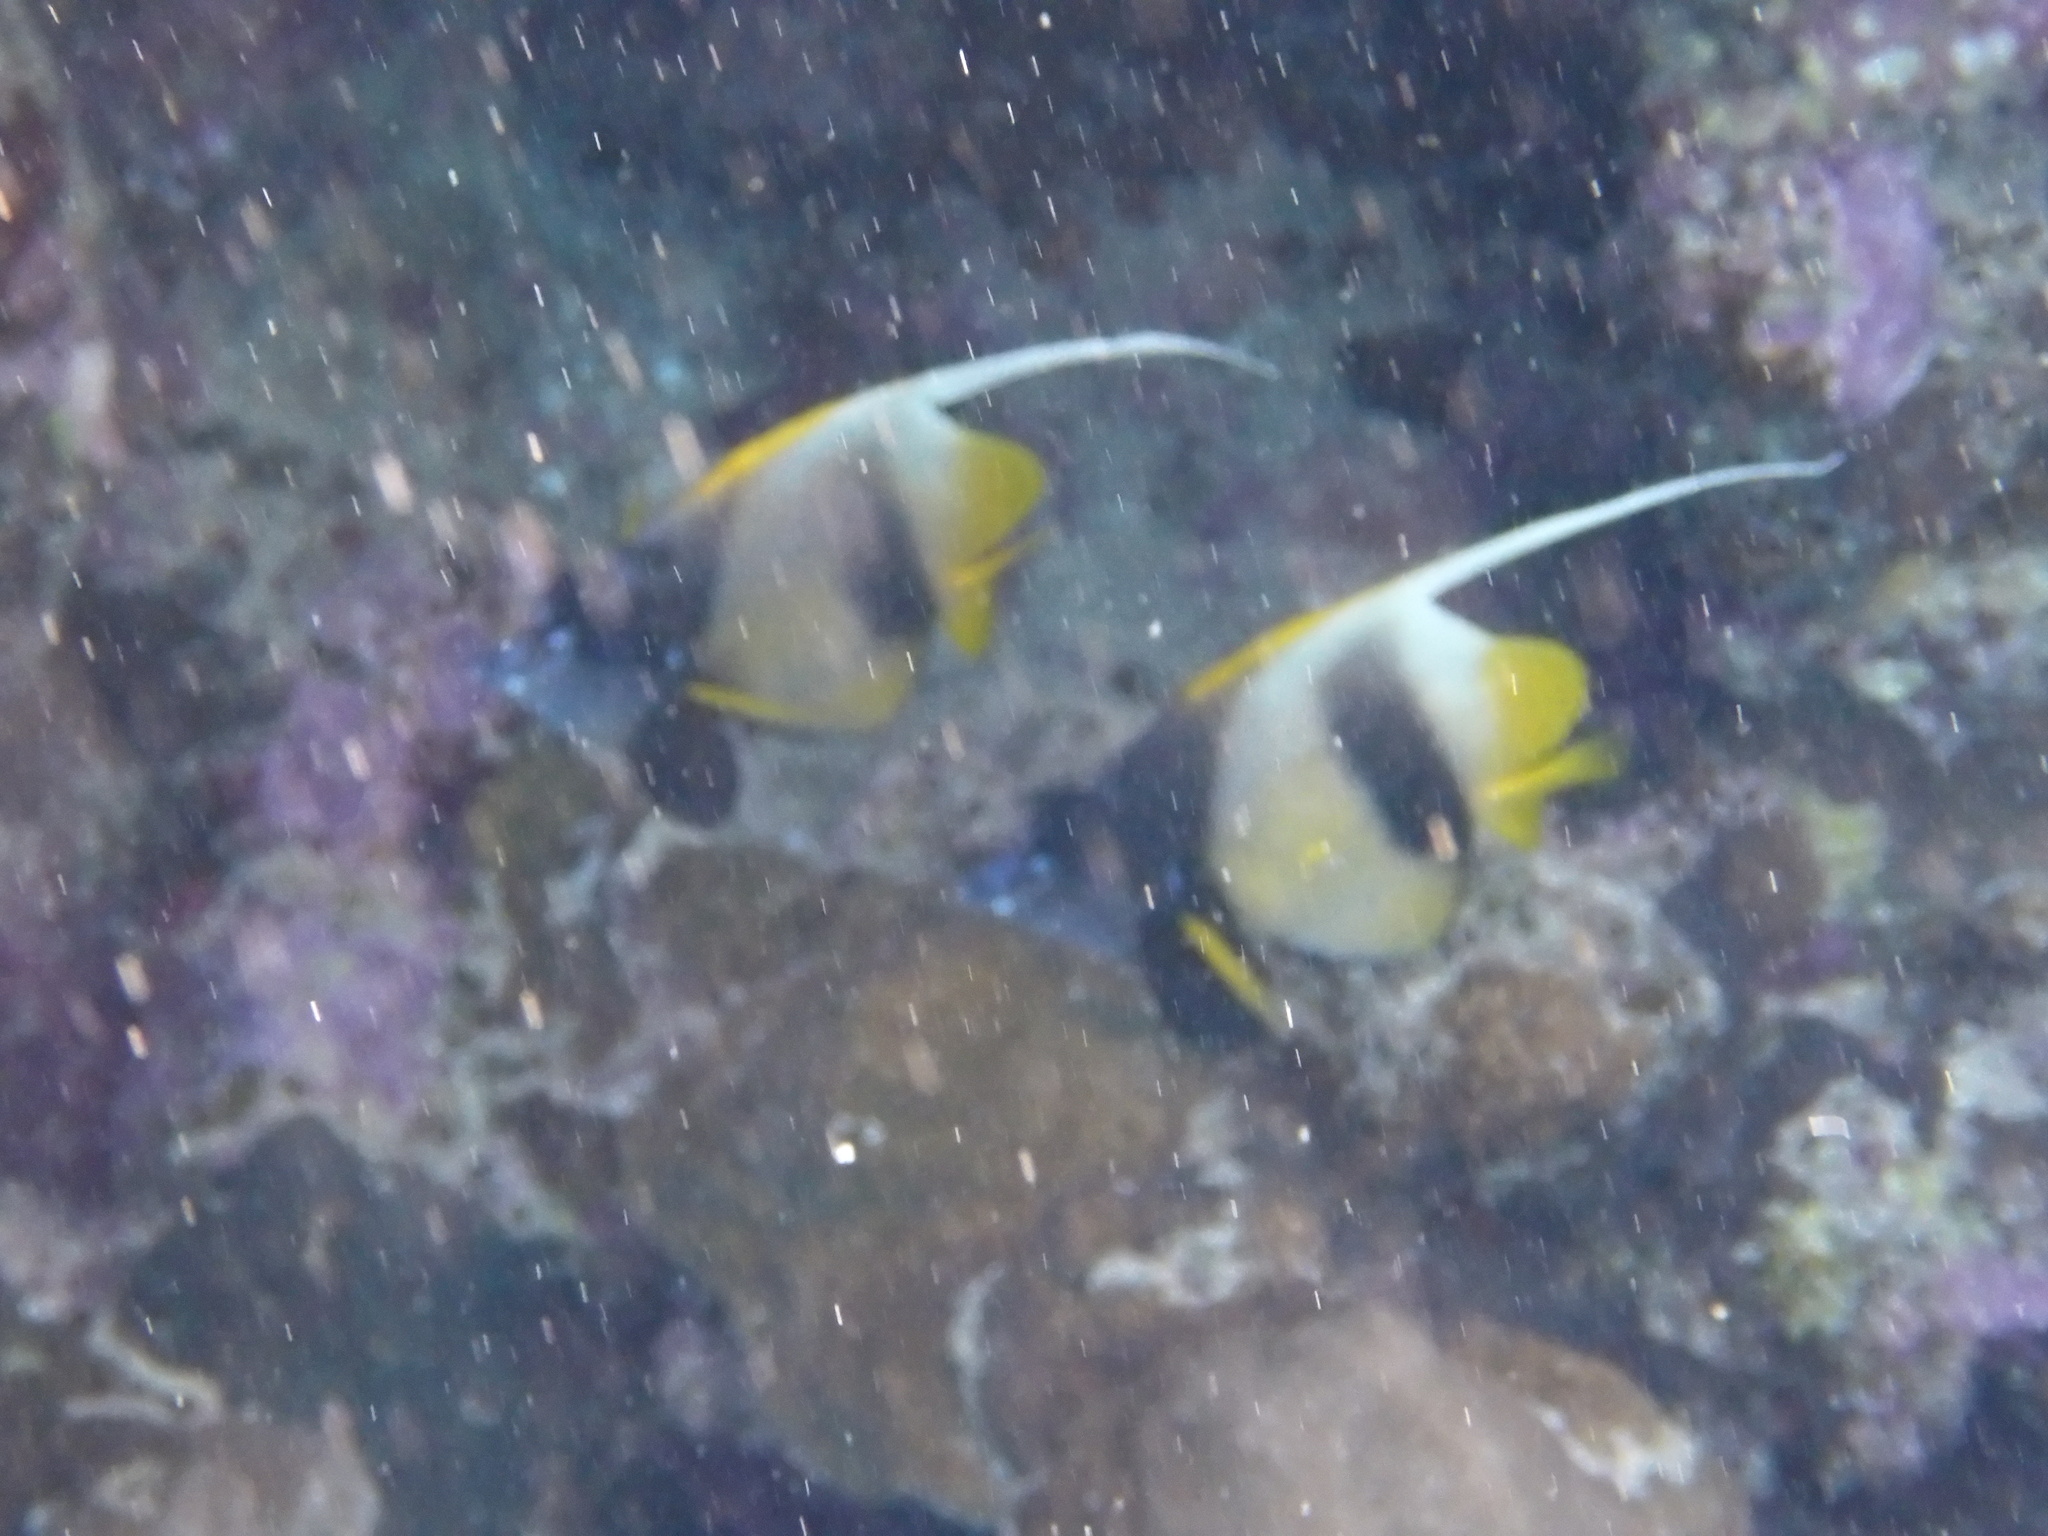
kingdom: Animalia
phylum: Chordata
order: Perciformes
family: Chaetodontidae
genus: Heniochus
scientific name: Heniochus intermedius
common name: Red sea bannerfish
